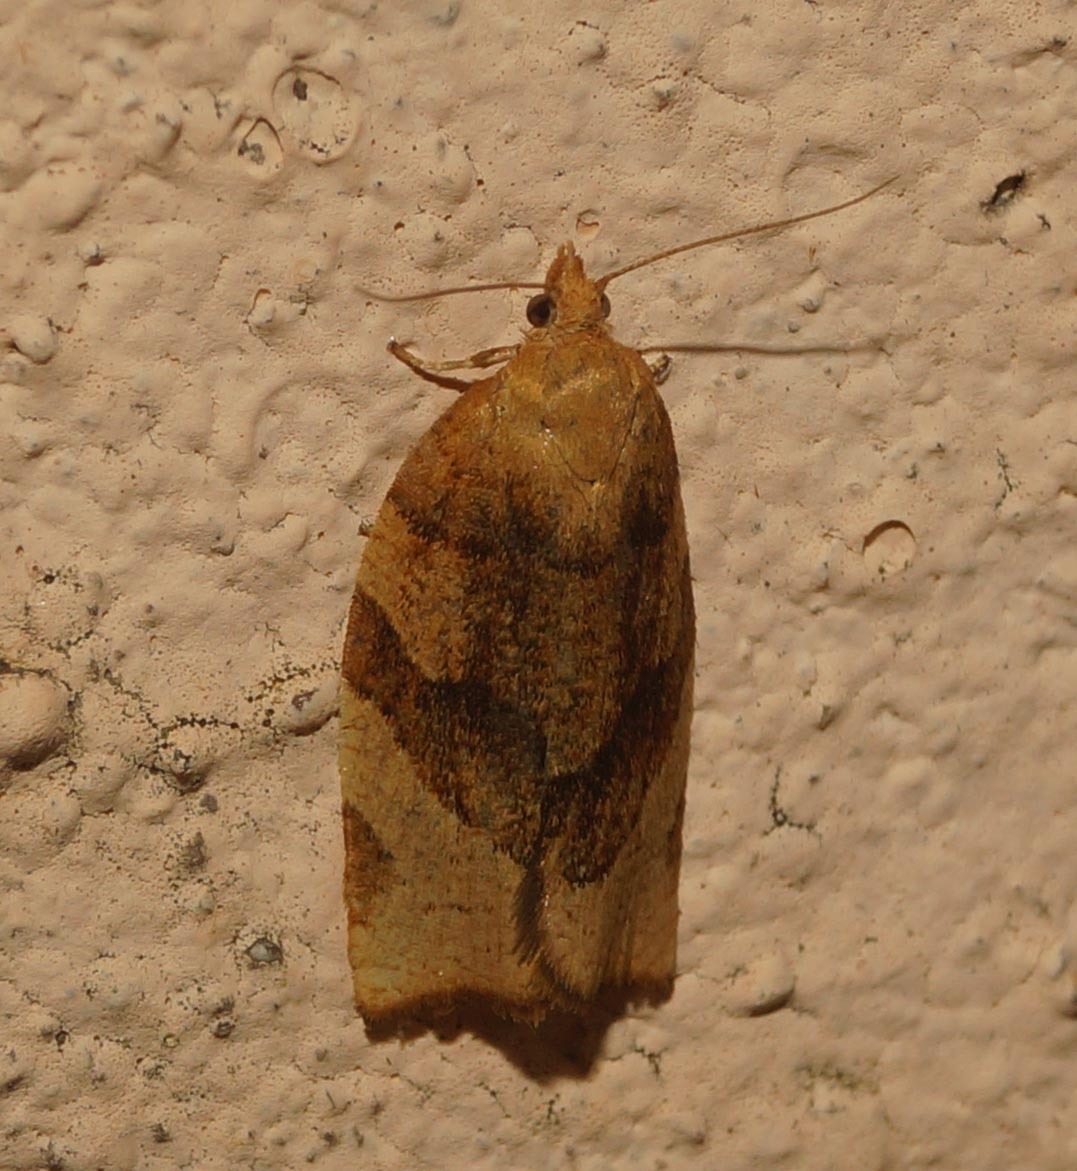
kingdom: Animalia
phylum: Arthropoda
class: Insecta
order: Lepidoptera
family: Tortricidae
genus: Pandemis
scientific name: Pandemis cerasana
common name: Barred fruit-tree tortrix
